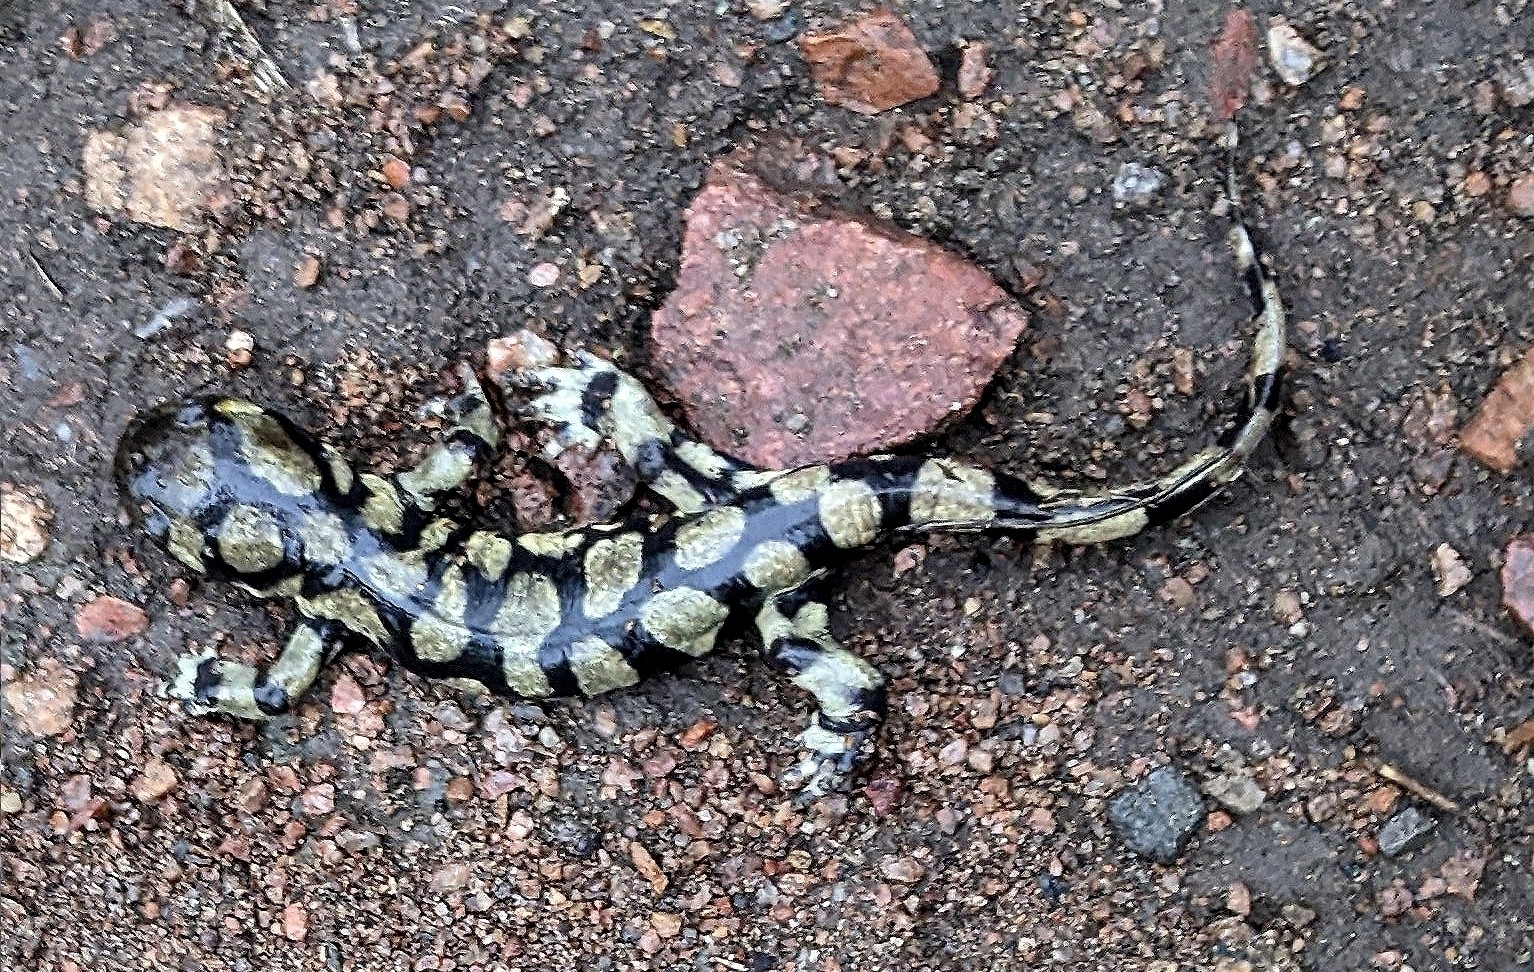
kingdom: Animalia
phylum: Chordata
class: Amphibia
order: Caudata
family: Ambystomatidae
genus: Ambystoma
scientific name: Ambystoma mavortium
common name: Western tiger salamander
